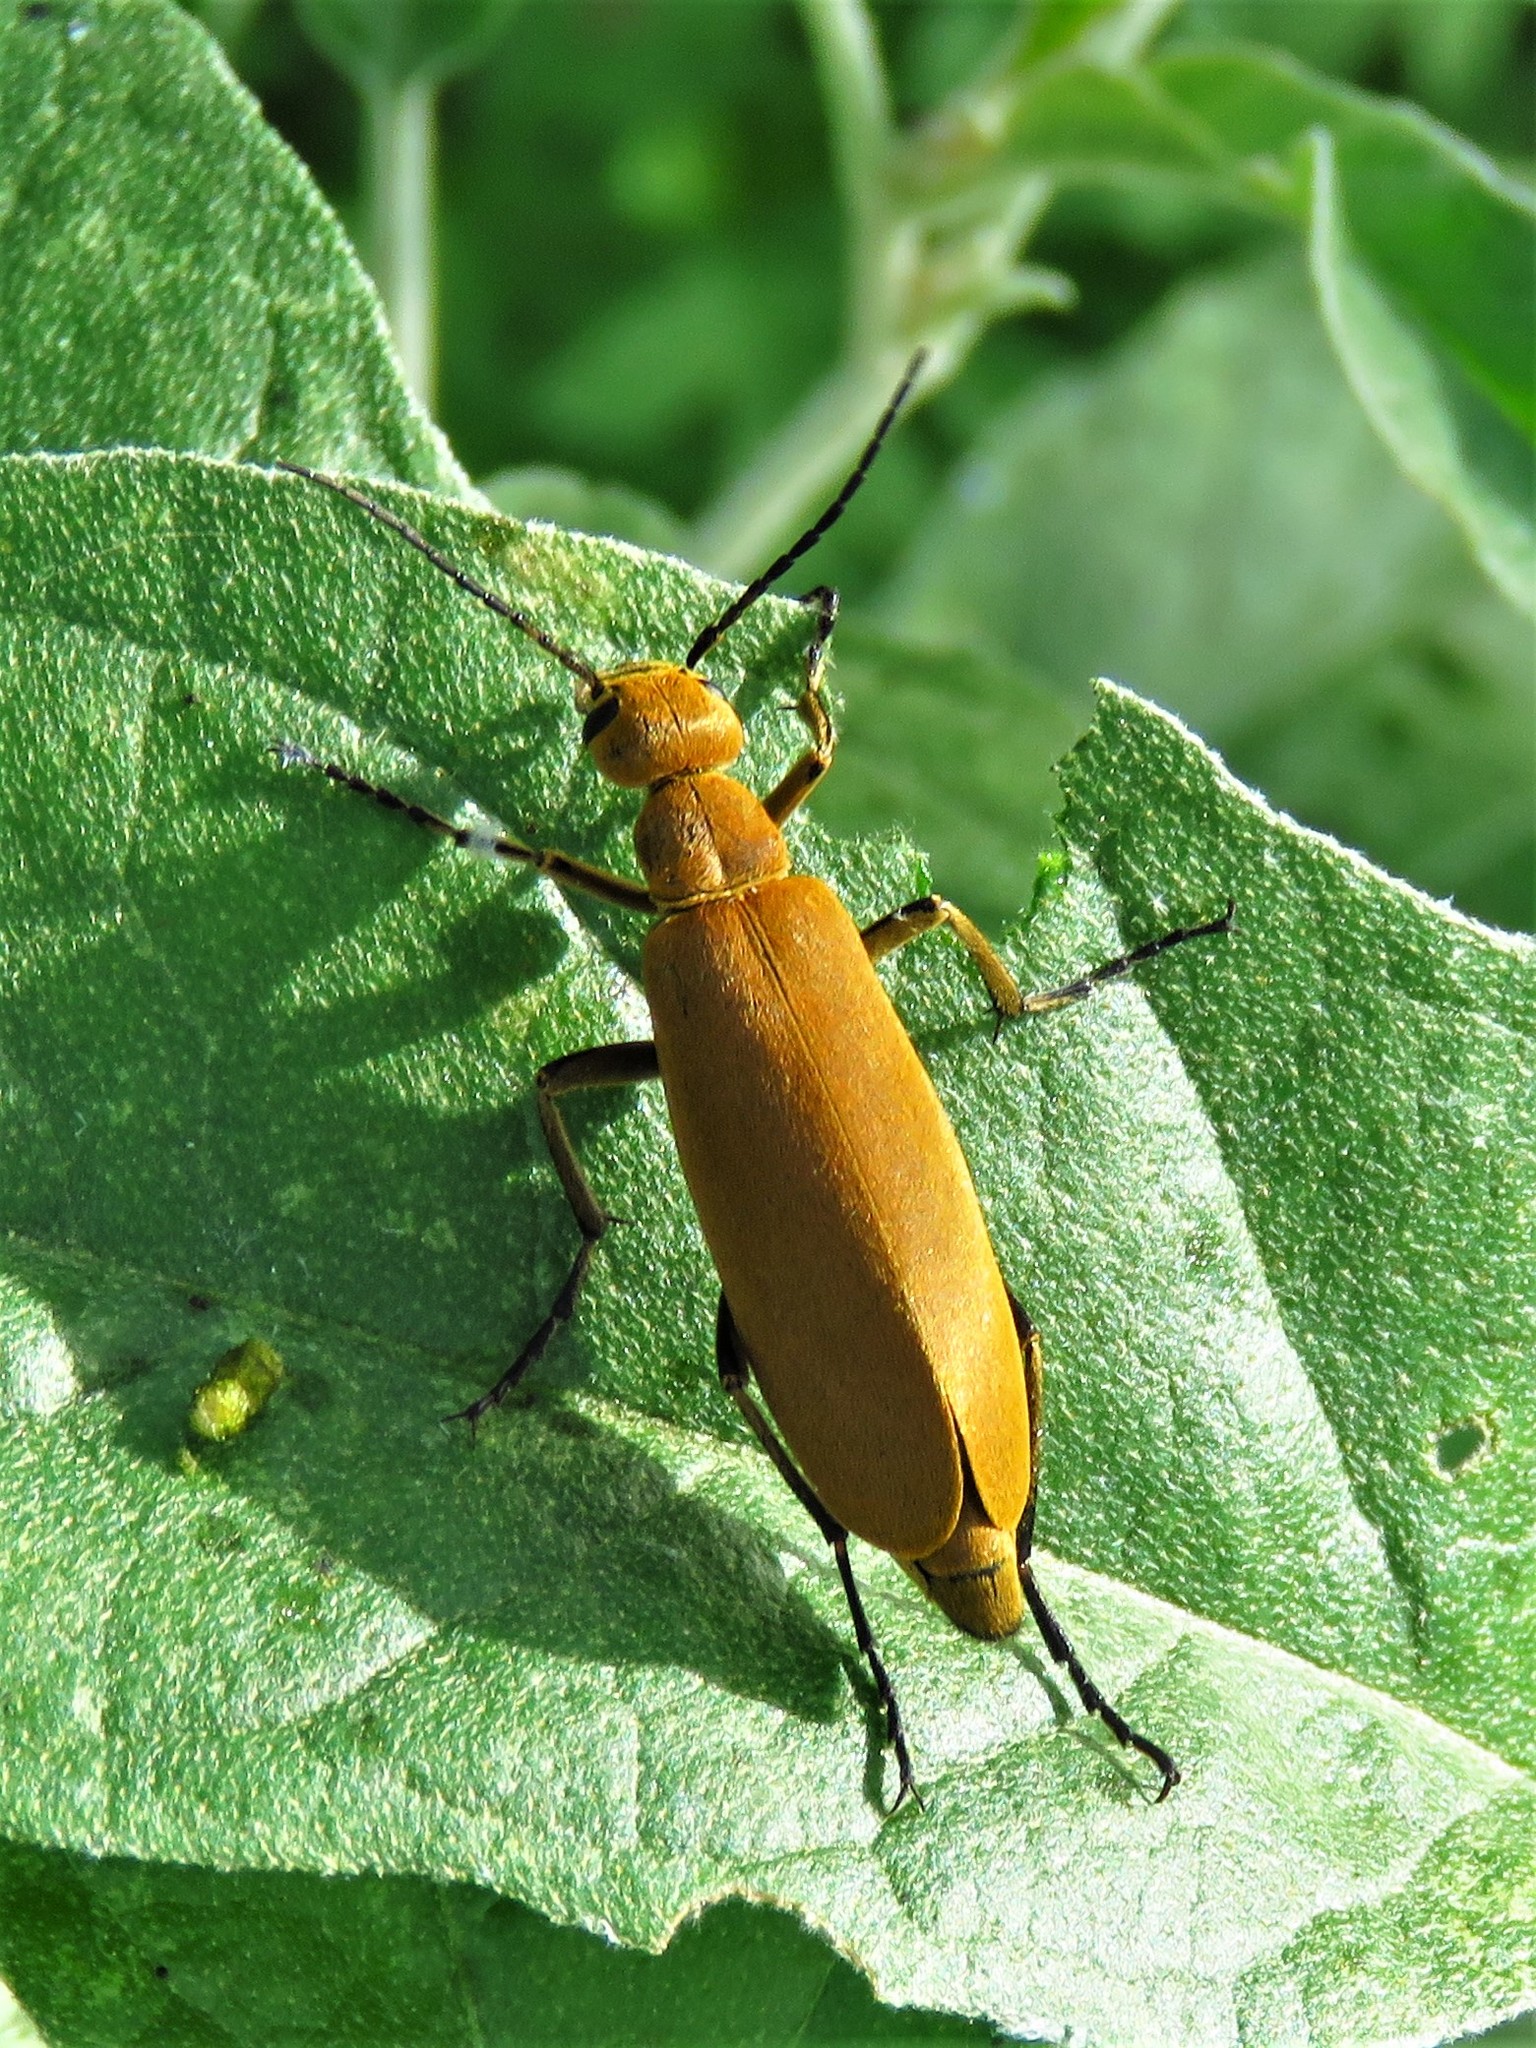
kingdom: Animalia
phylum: Arthropoda
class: Insecta
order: Coleoptera
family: Meloidae
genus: Epicauta
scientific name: Epicauta immaculata
